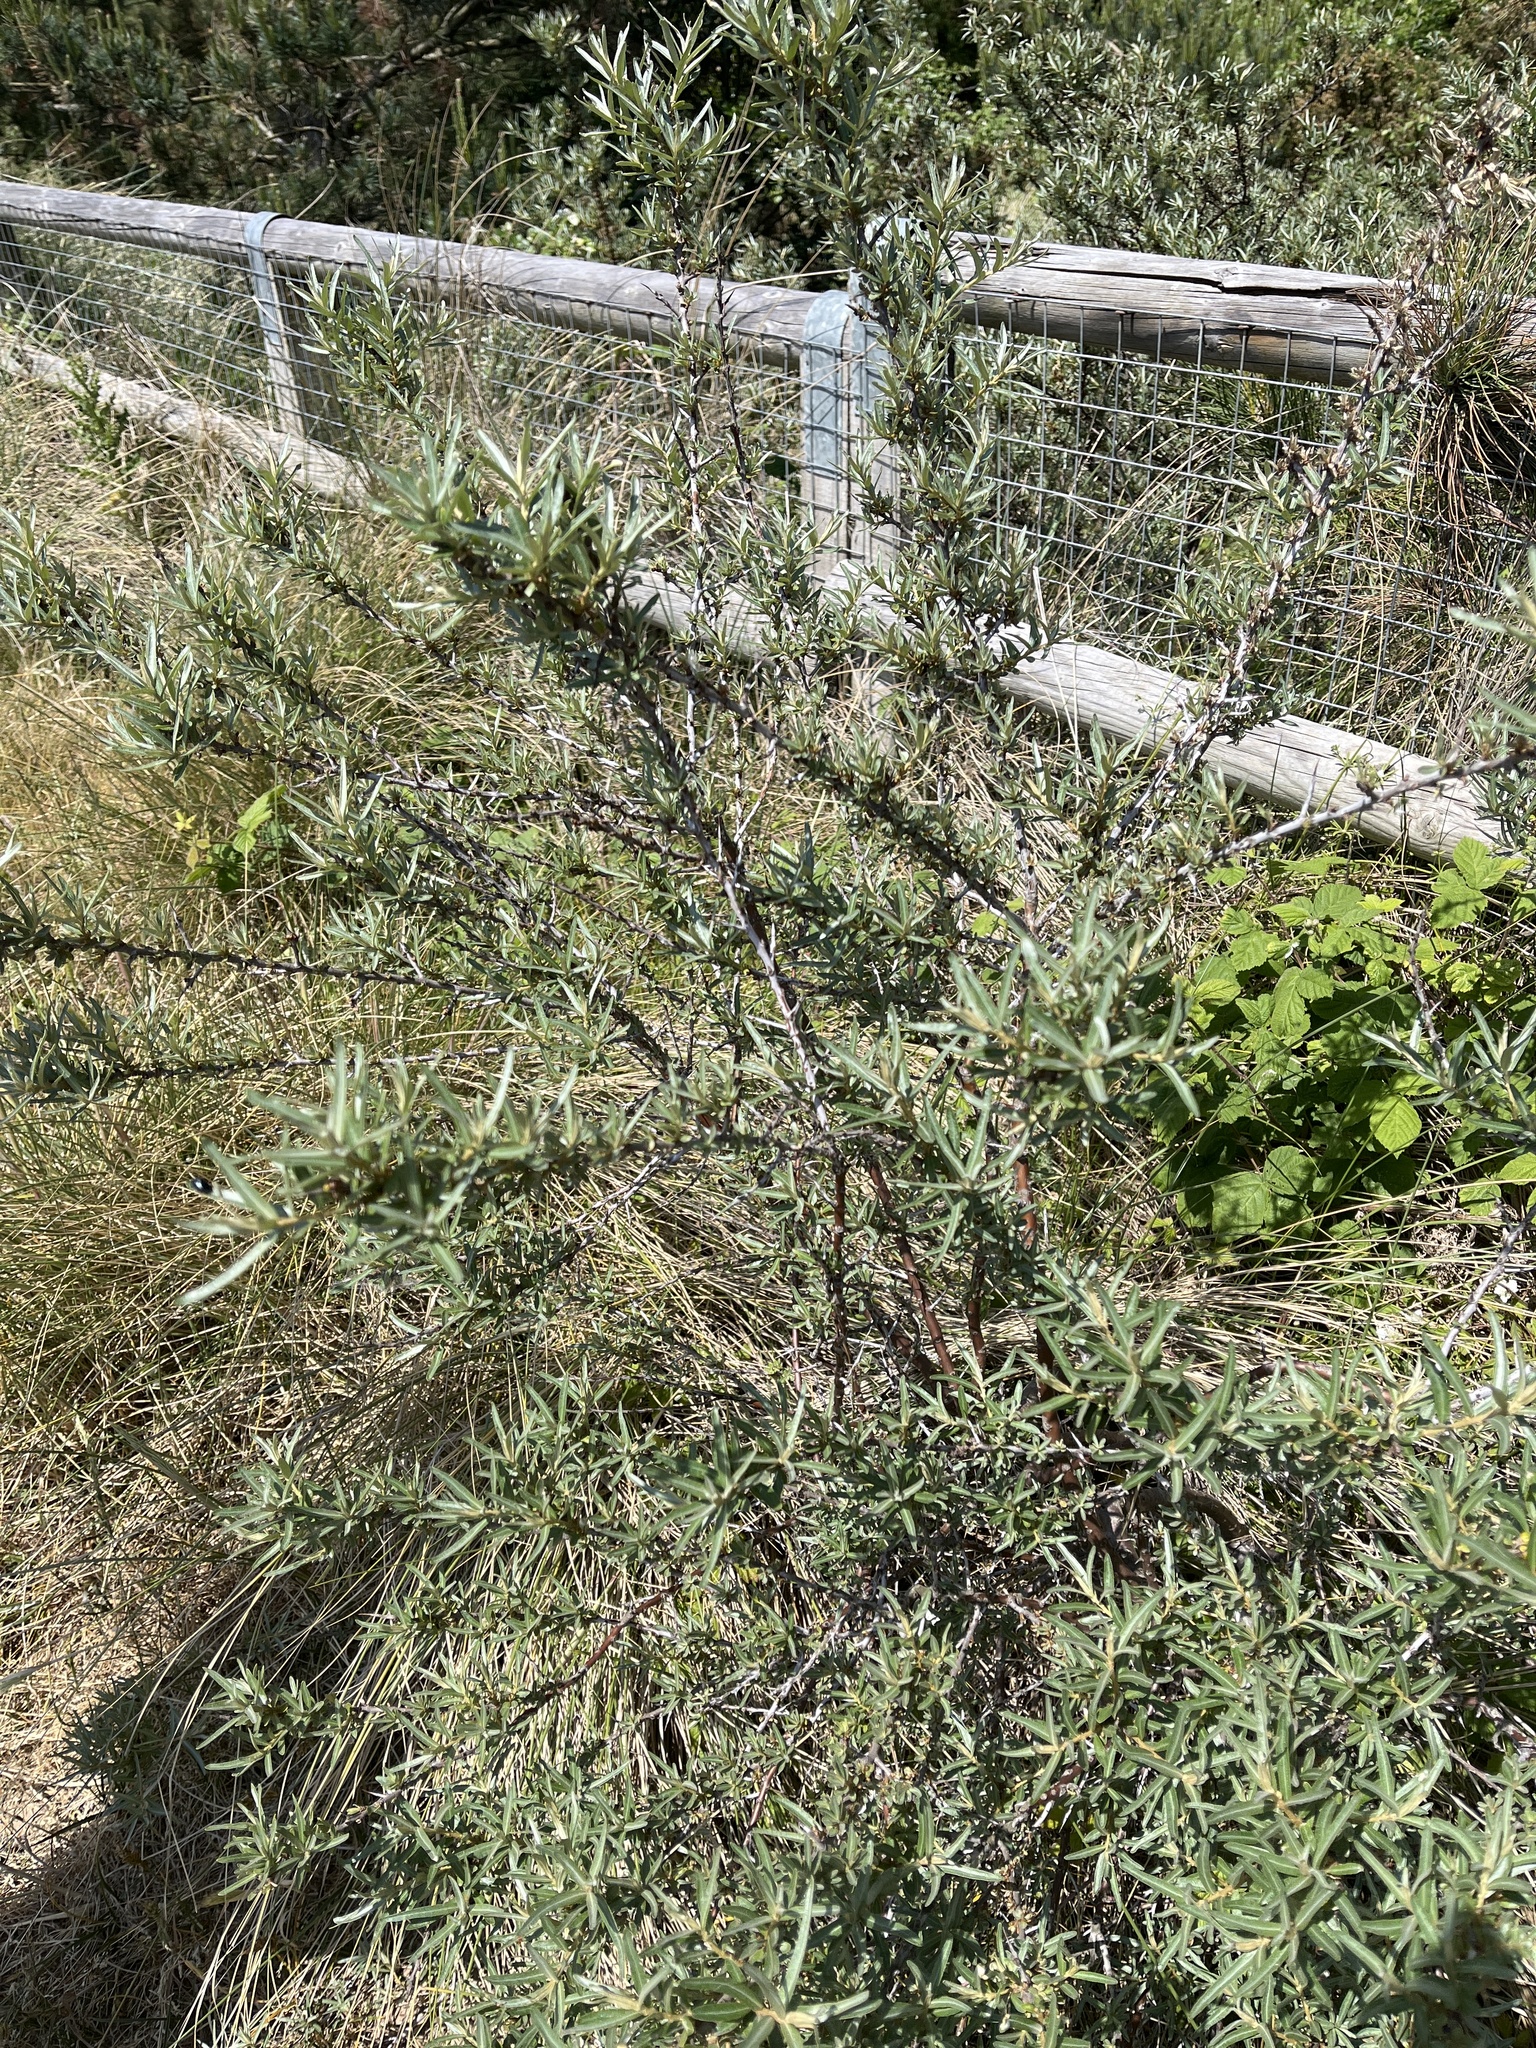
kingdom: Plantae
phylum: Tracheophyta
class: Magnoliopsida
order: Rosales
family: Elaeagnaceae
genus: Hippophae
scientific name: Hippophae rhamnoides
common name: Sea-buckthorn
